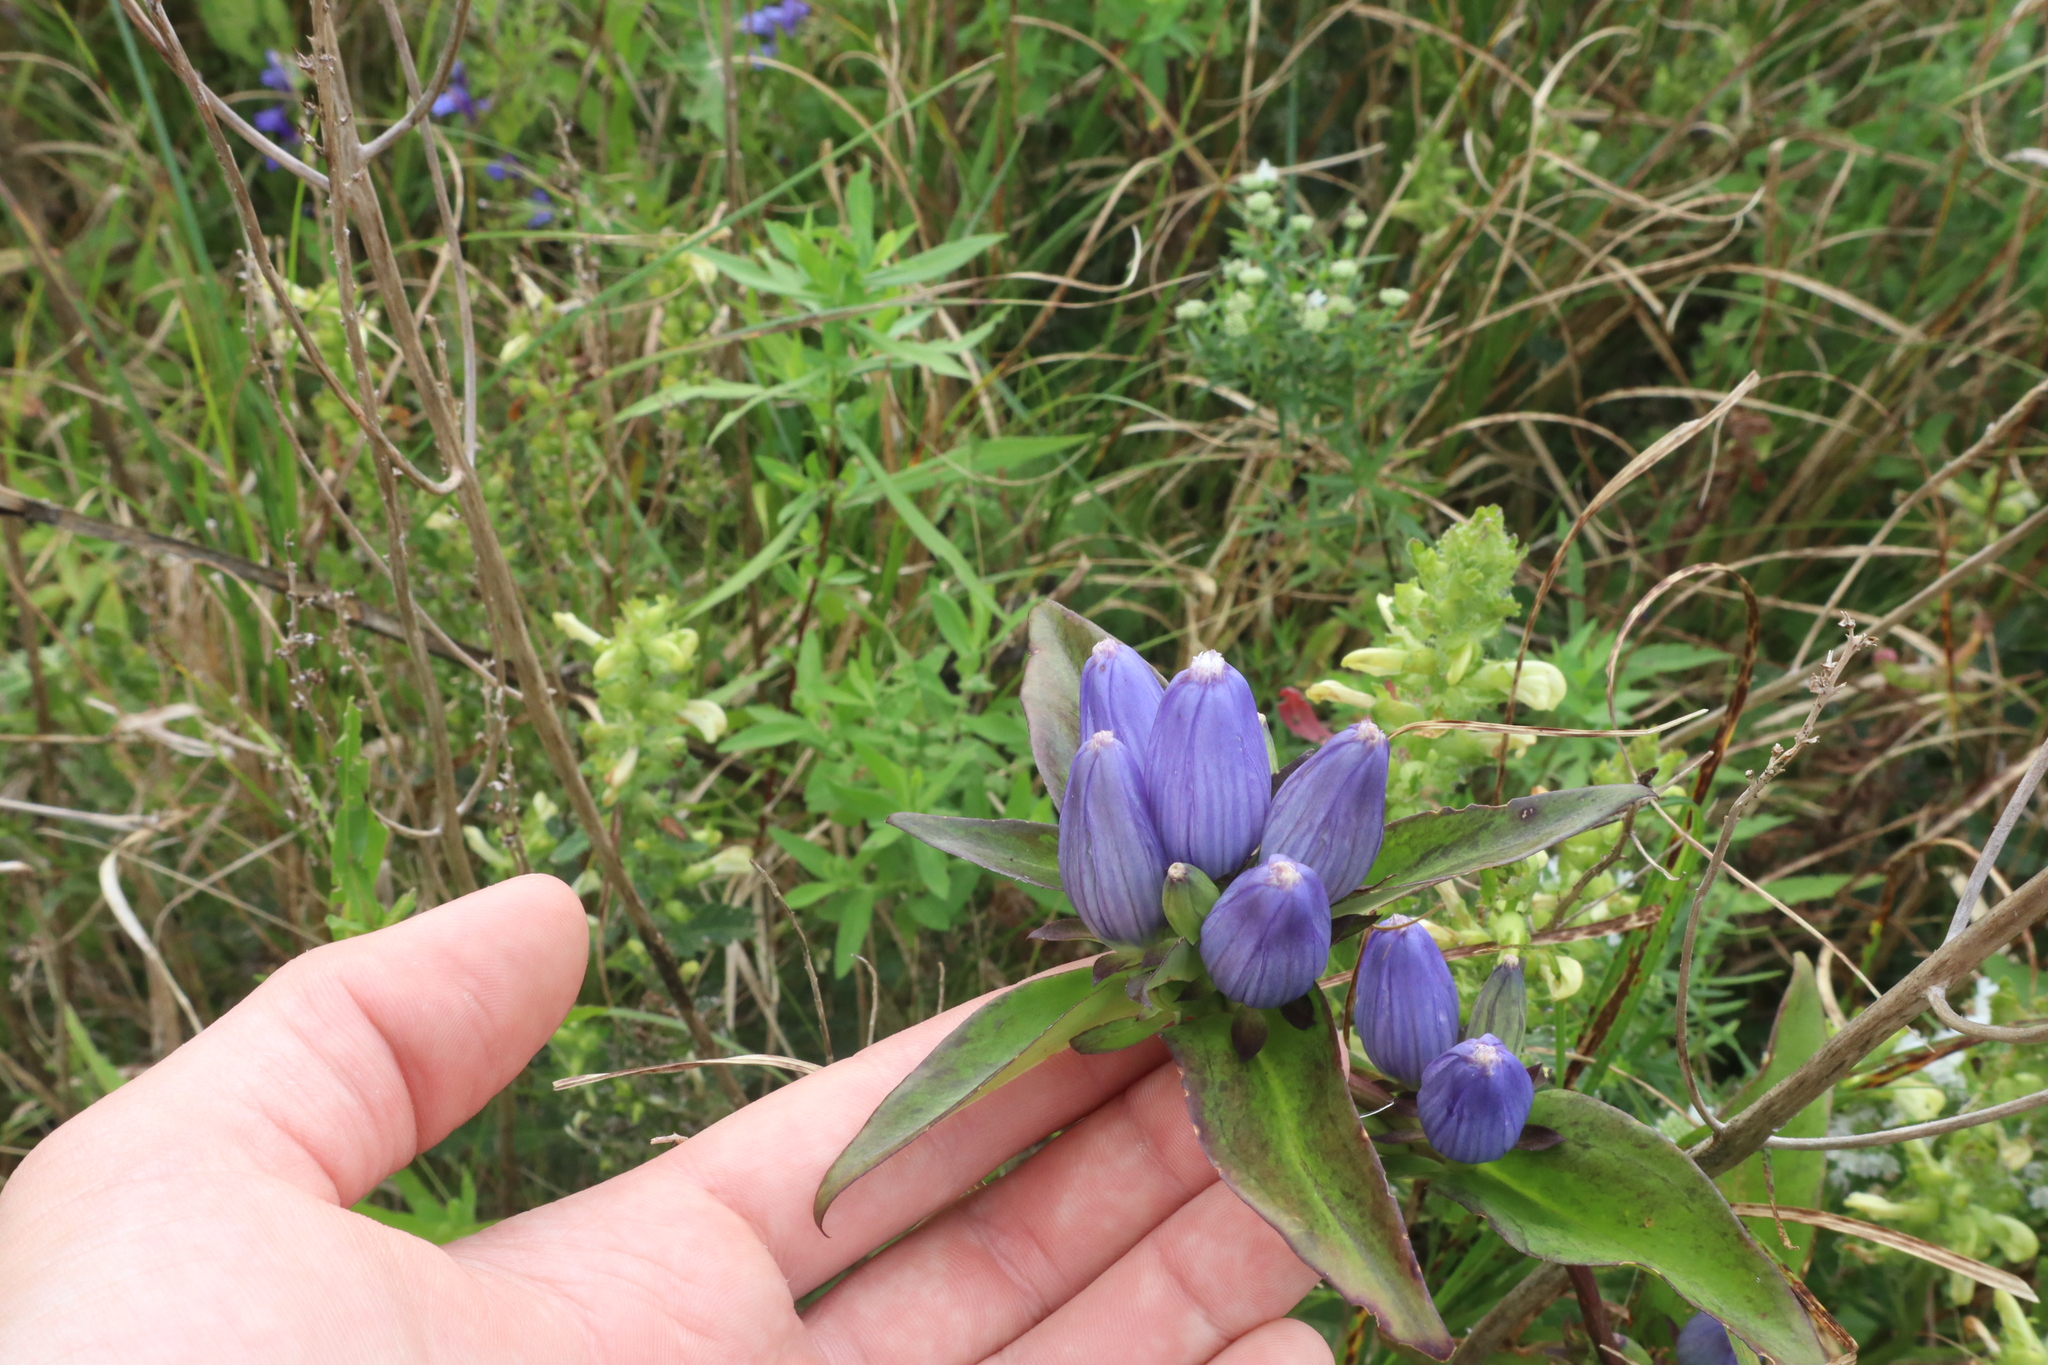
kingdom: Plantae
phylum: Tracheophyta
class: Magnoliopsida
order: Gentianales
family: Gentianaceae
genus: Gentiana
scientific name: Gentiana andrewsii
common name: Bottle gentian
